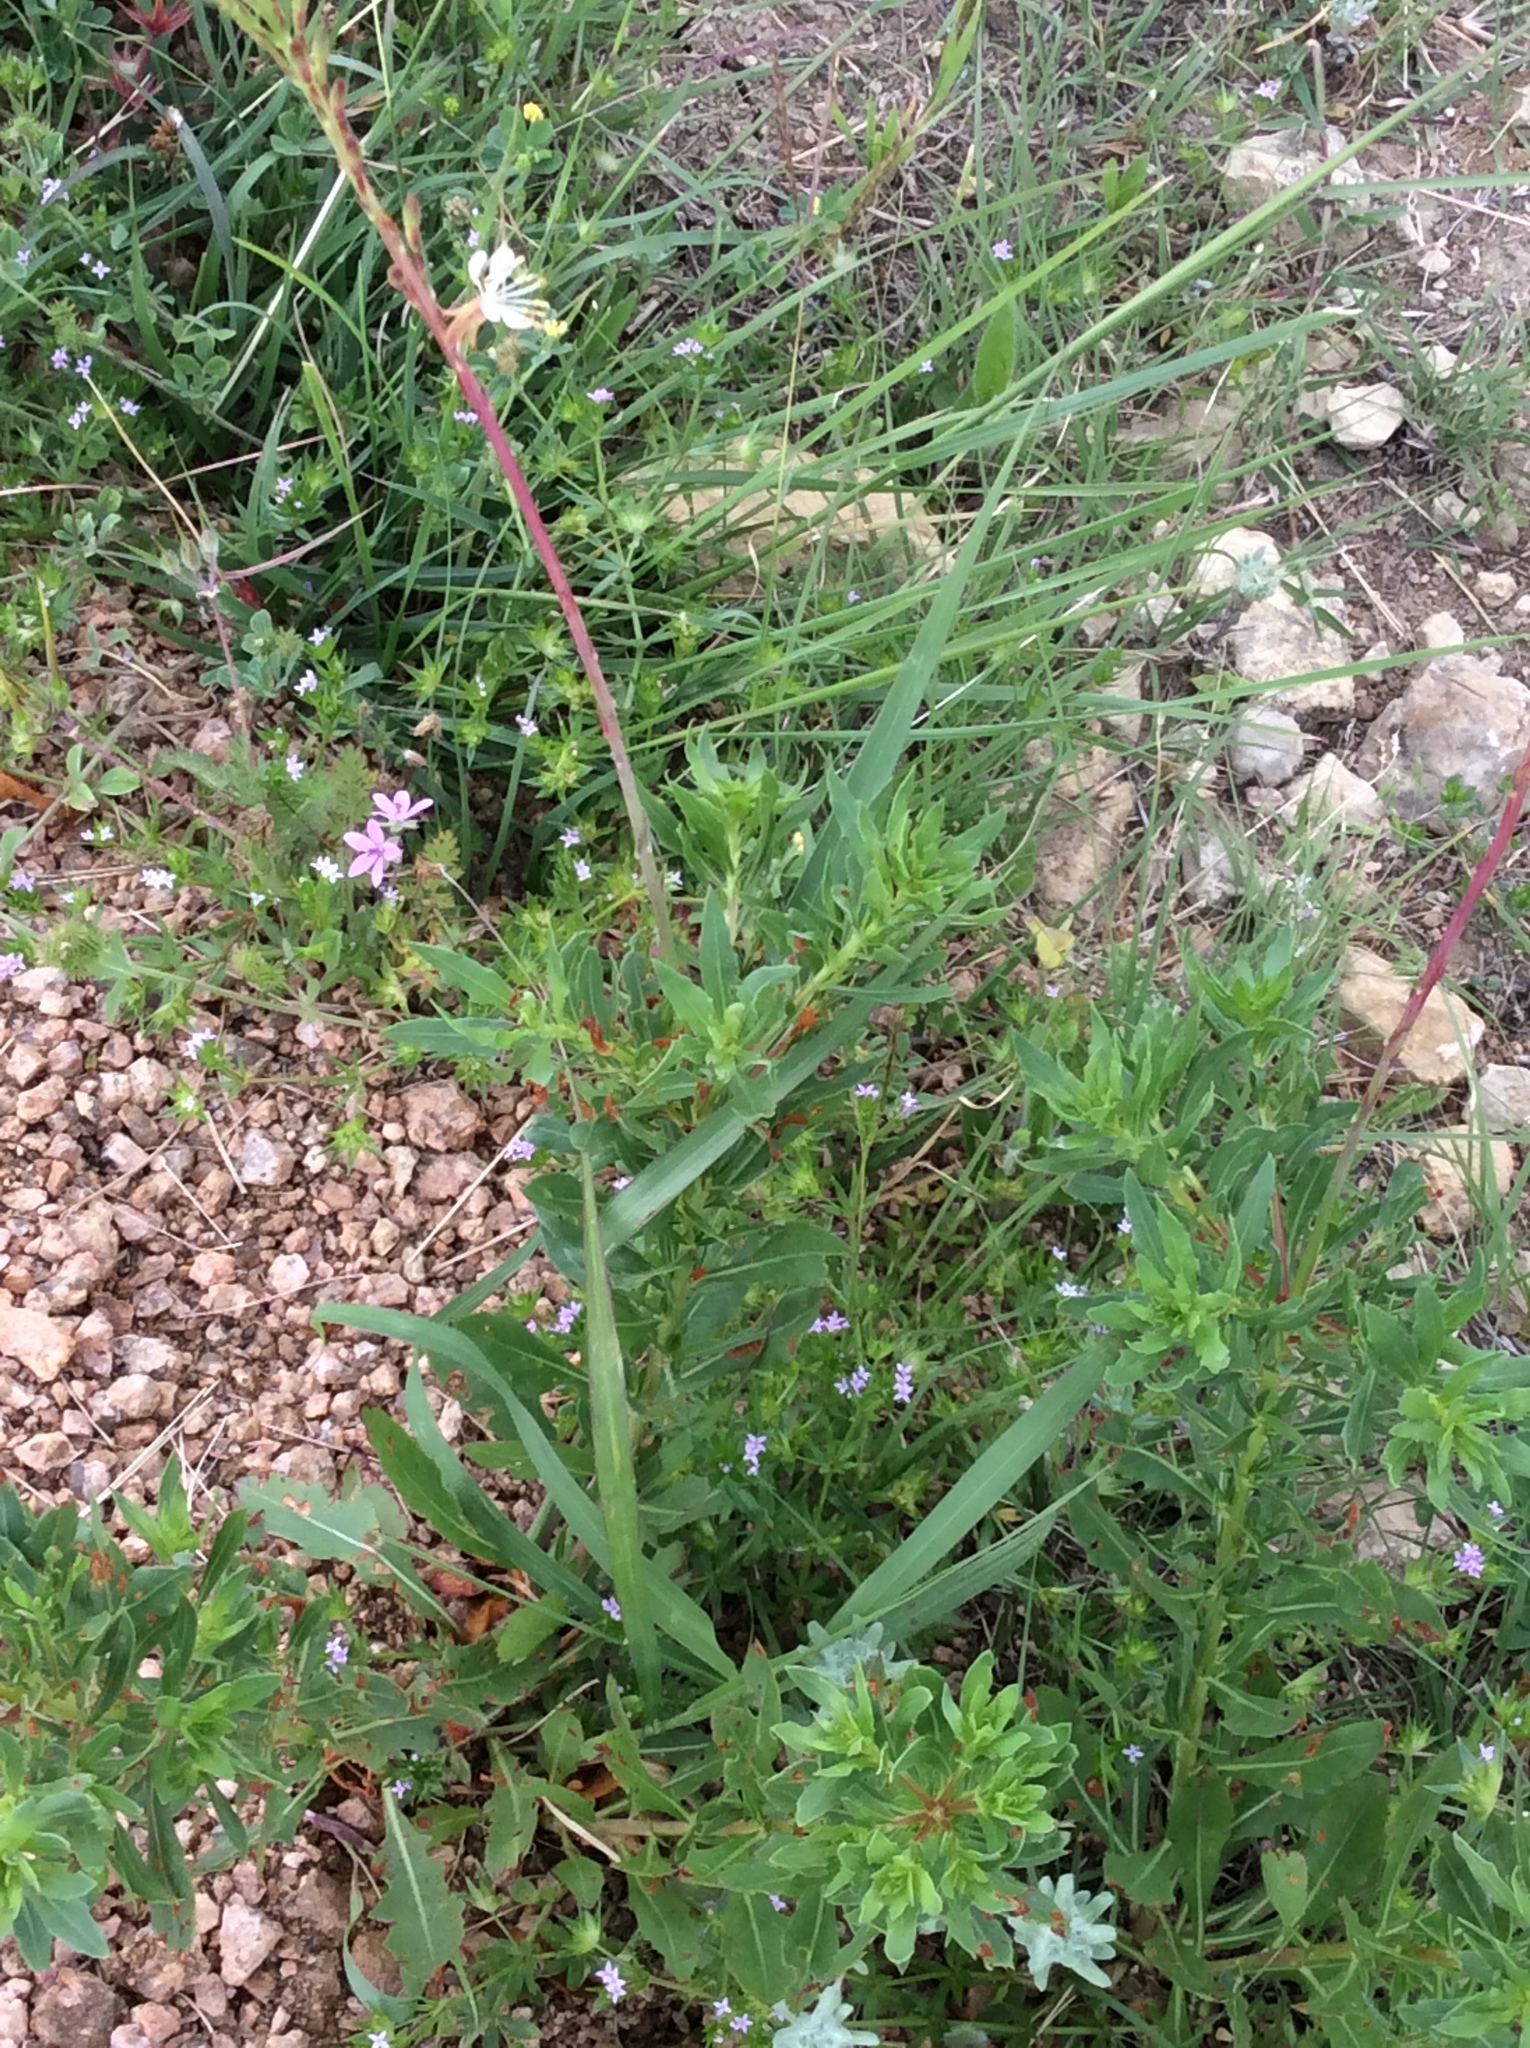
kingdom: Plantae
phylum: Tracheophyta
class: Magnoliopsida
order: Myrtales
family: Onagraceae
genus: Oenothera
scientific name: Oenothera suffulta
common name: Kisses
